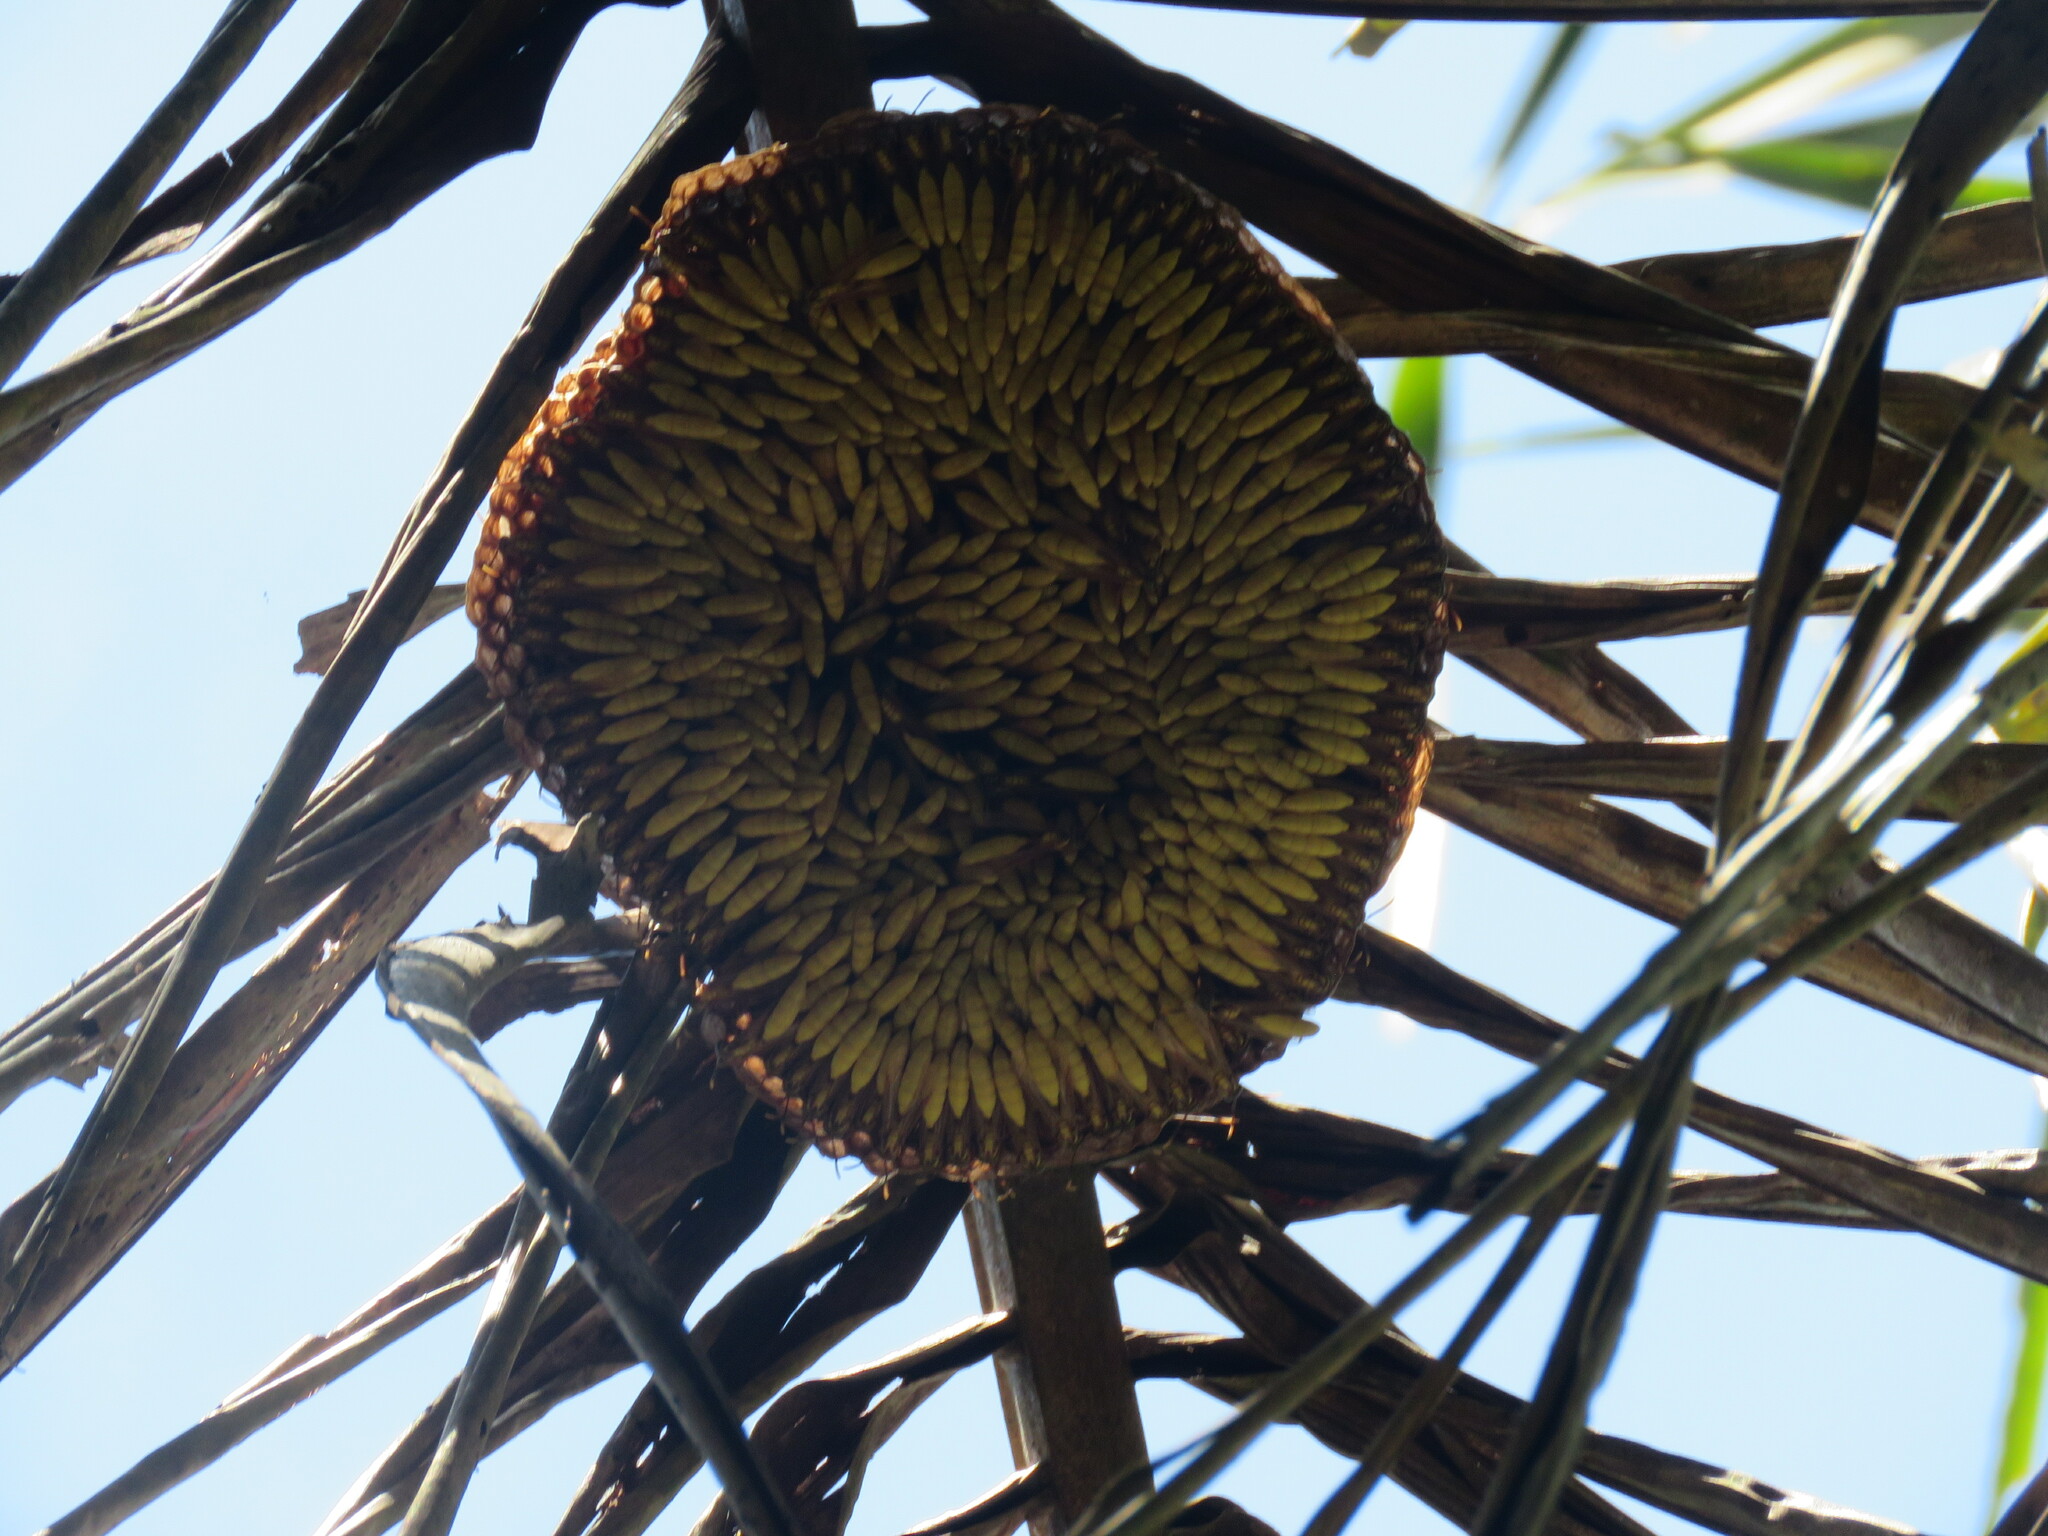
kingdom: Animalia
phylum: Arthropoda
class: Insecta
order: Hymenoptera
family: Vespidae
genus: Apoica
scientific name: Apoica flavissima
